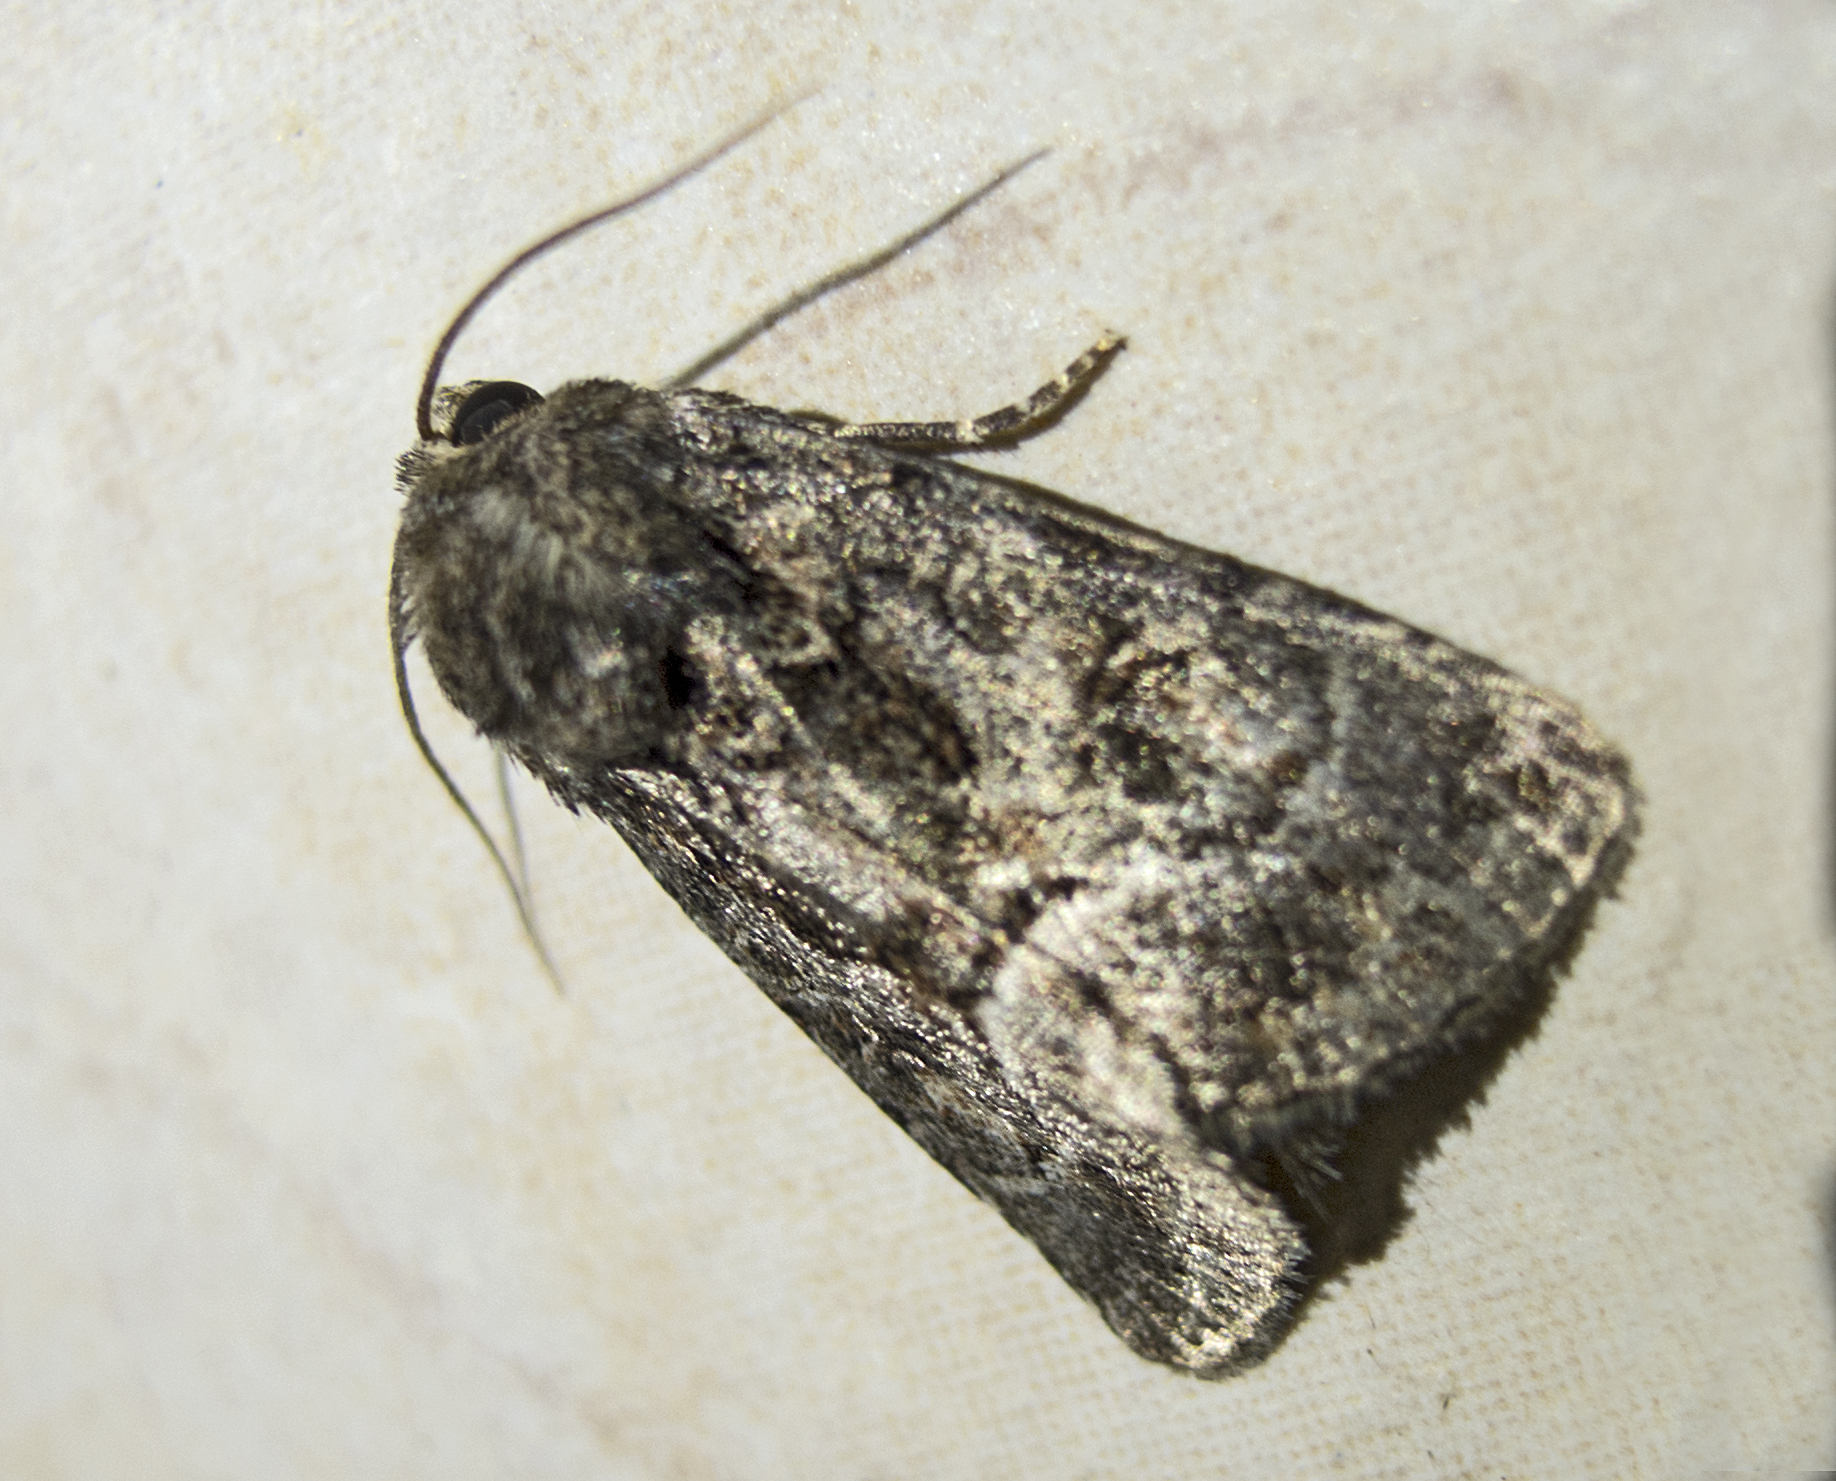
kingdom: Animalia
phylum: Arthropoda
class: Insecta
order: Lepidoptera
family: Noctuidae
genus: Thalpophila
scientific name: Thalpophila matura
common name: Straw underwing
